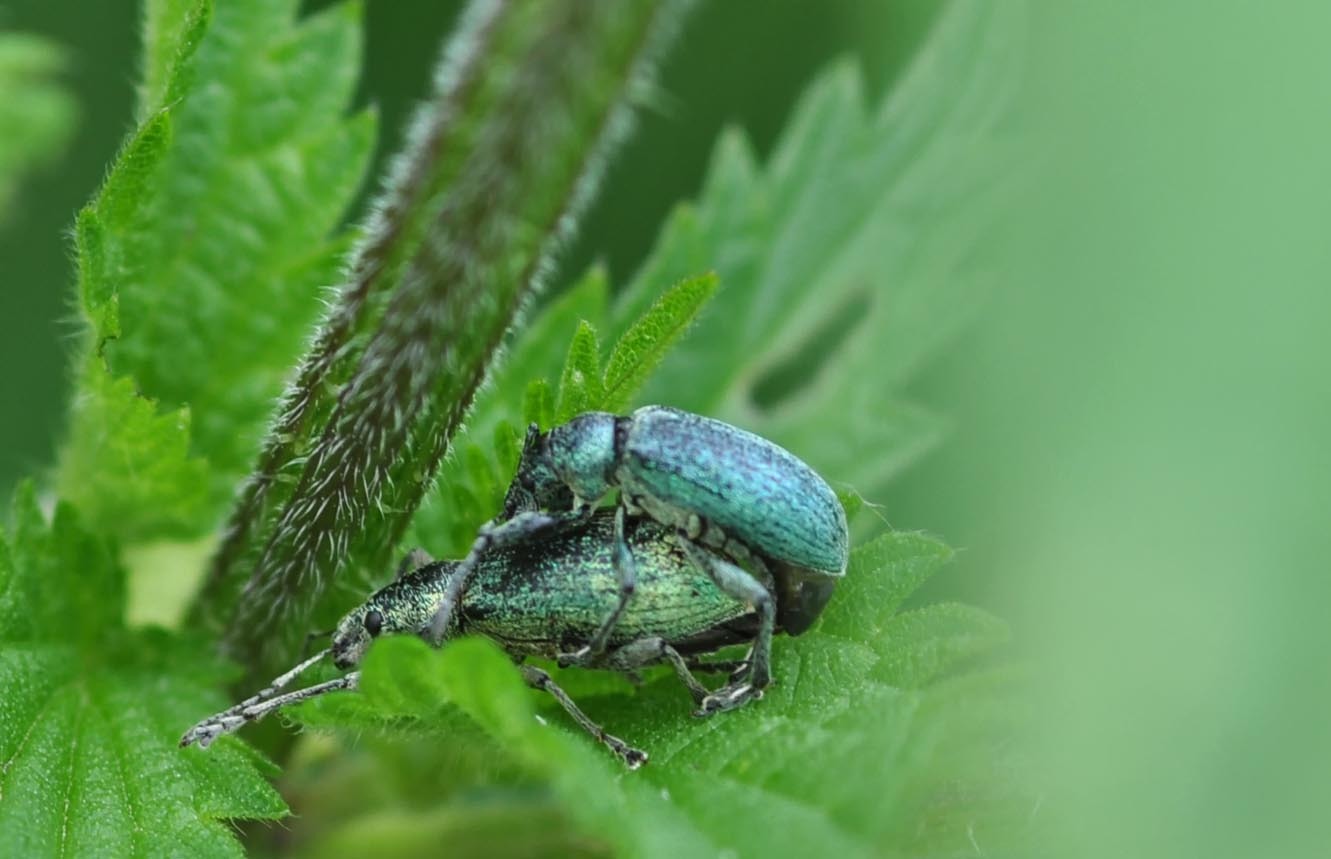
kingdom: Animalia
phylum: Arthropoda
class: Insecta
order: Coleoptera
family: Curculionidae
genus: Phyllobius
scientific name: Phyllobius pomaceus
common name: Green nettle weevil
